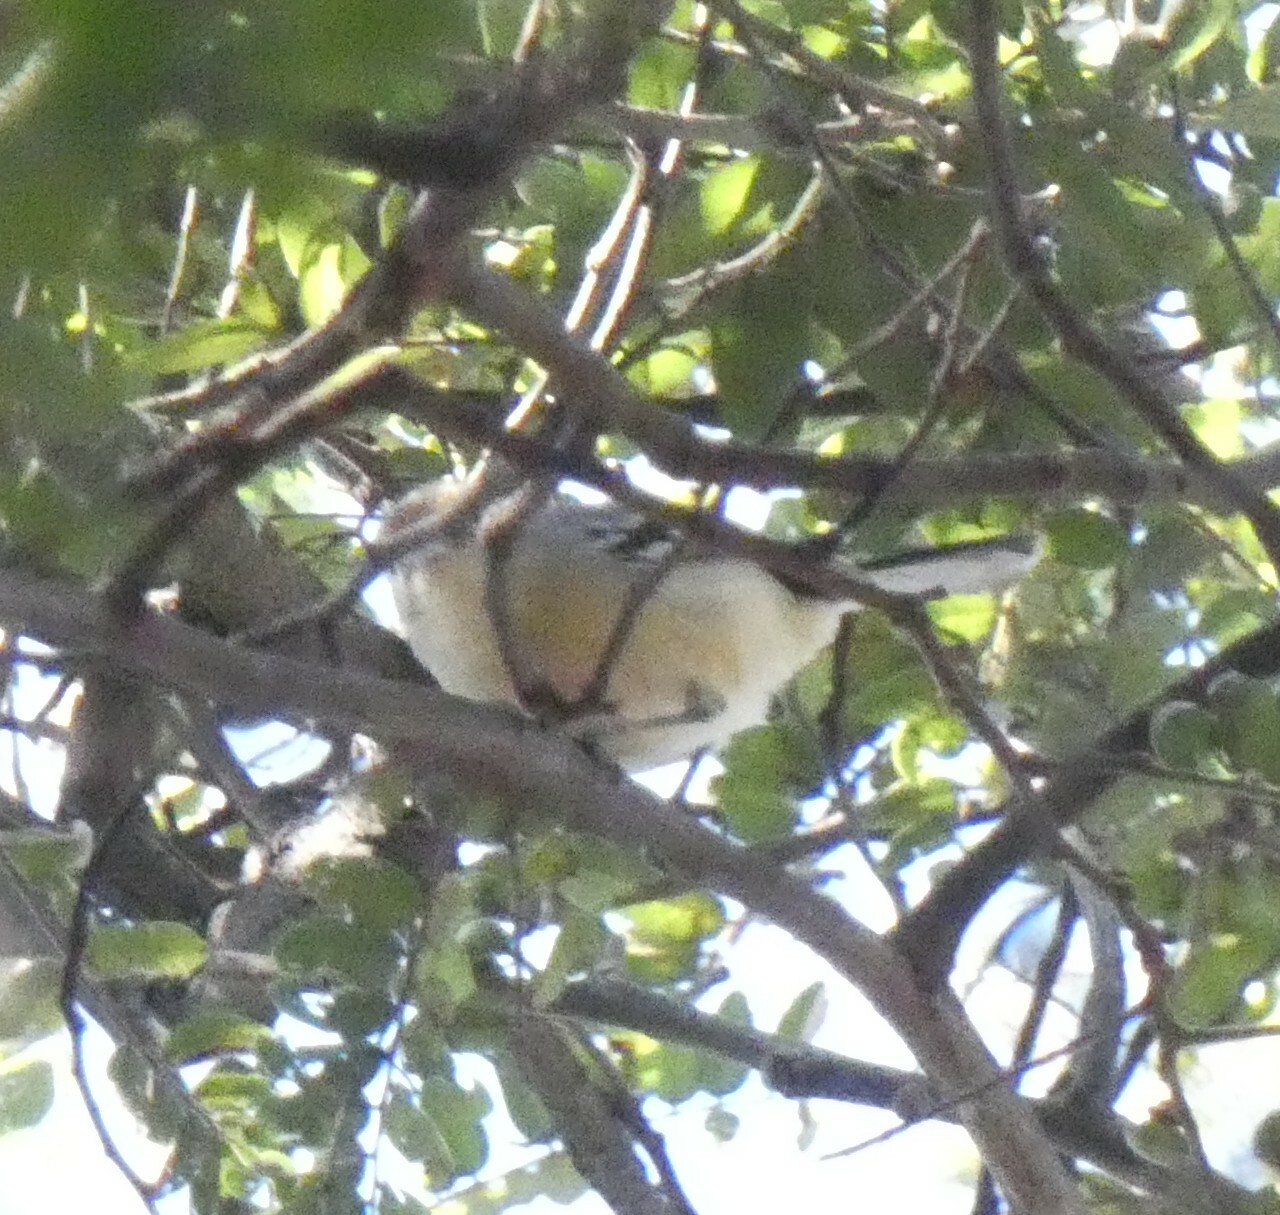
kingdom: Animalia
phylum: Chordata
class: Aves
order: Passeriformes
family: Thamnophilidae
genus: Herpsilochmus
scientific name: Herpsilochmus atricapillus
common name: Black-capped antwren
